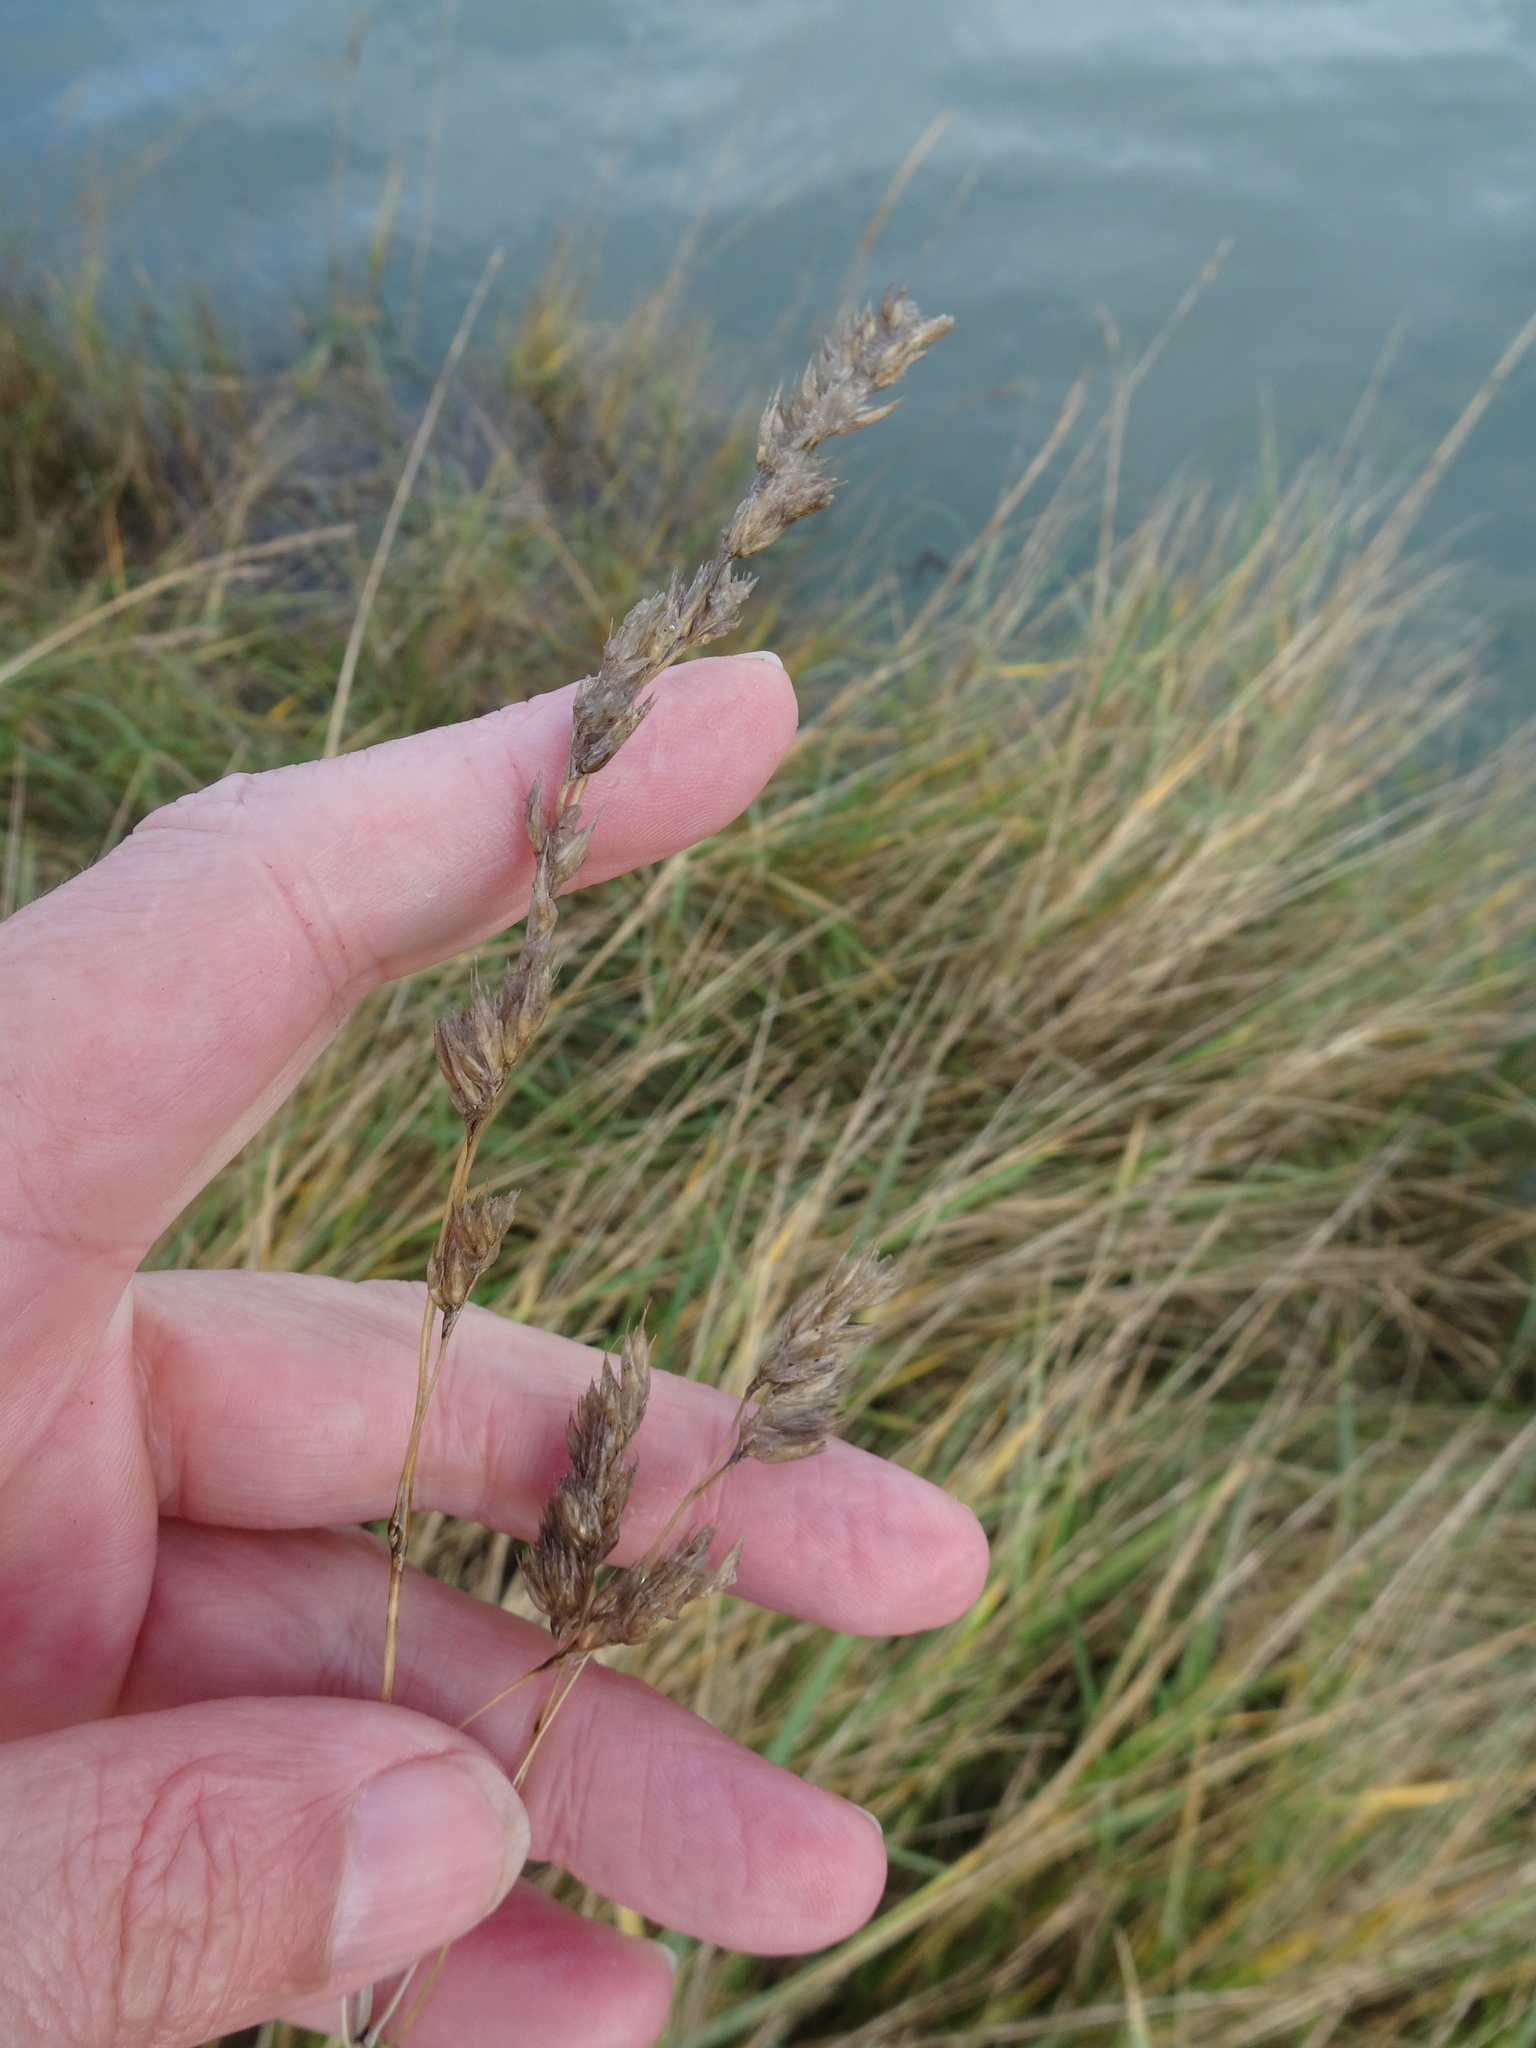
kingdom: Plantae
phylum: Tracheophyta
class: Liliopsida
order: Poales
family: Poaceae
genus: Dactylis
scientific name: Dactylis glomerata
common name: Orchardgrass
